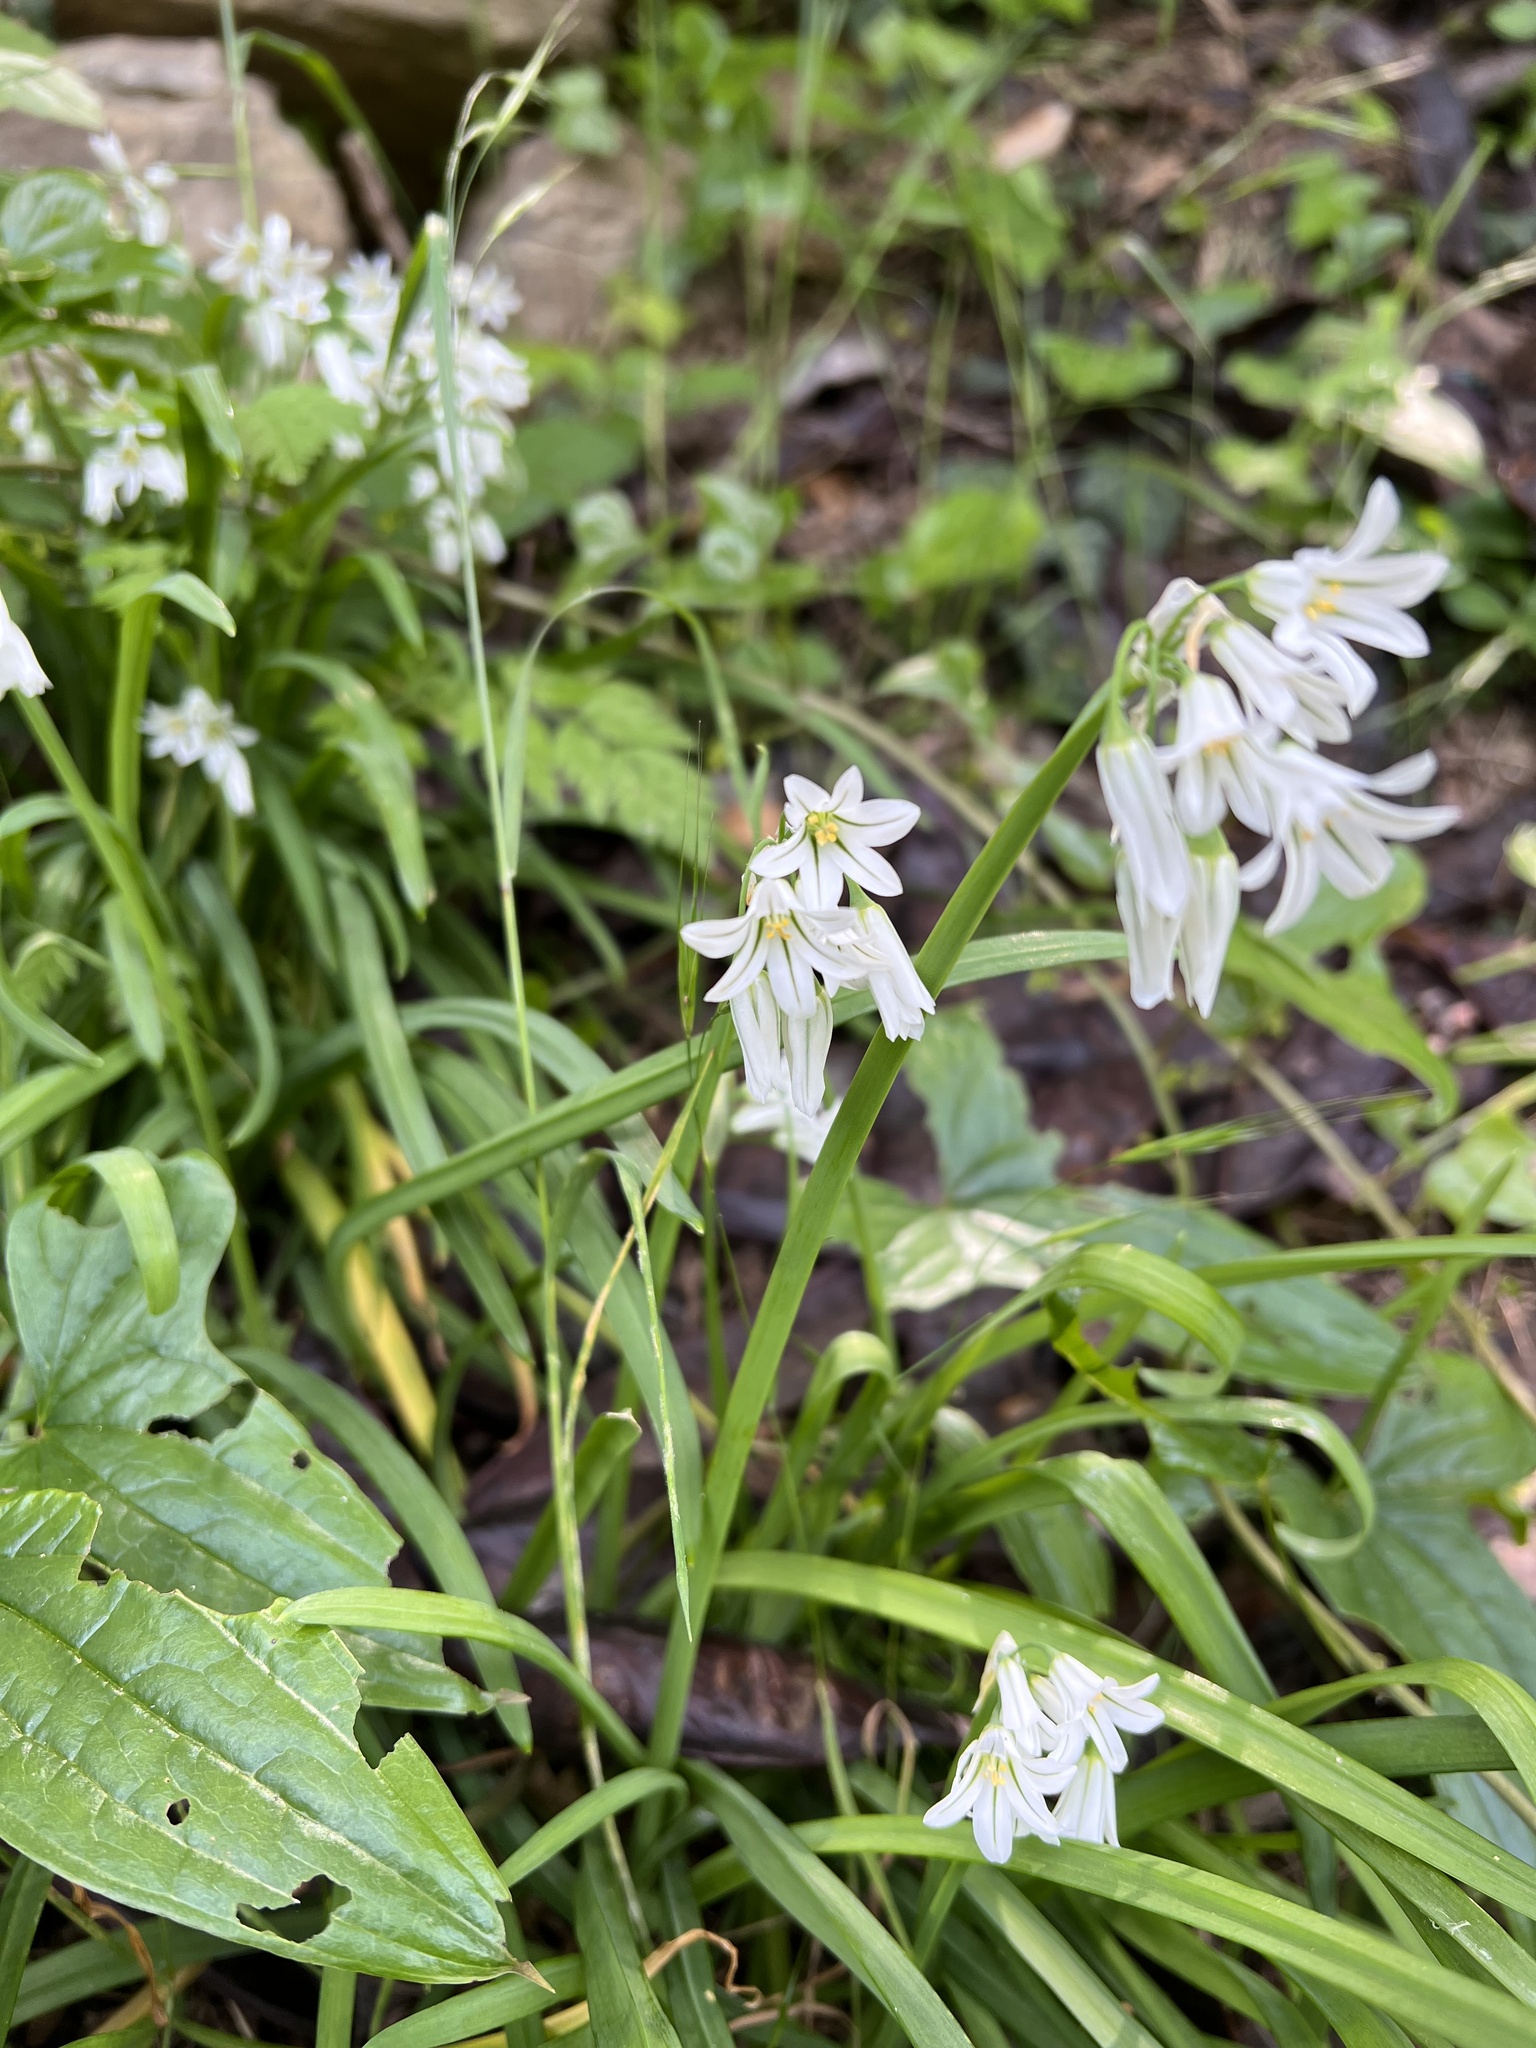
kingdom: Plantae
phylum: Tracheophyta
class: Liliopsida
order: Asparagales
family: Amaryllidaceae
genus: Allium
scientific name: Allium triquetrum
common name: Three-cornered garlic
